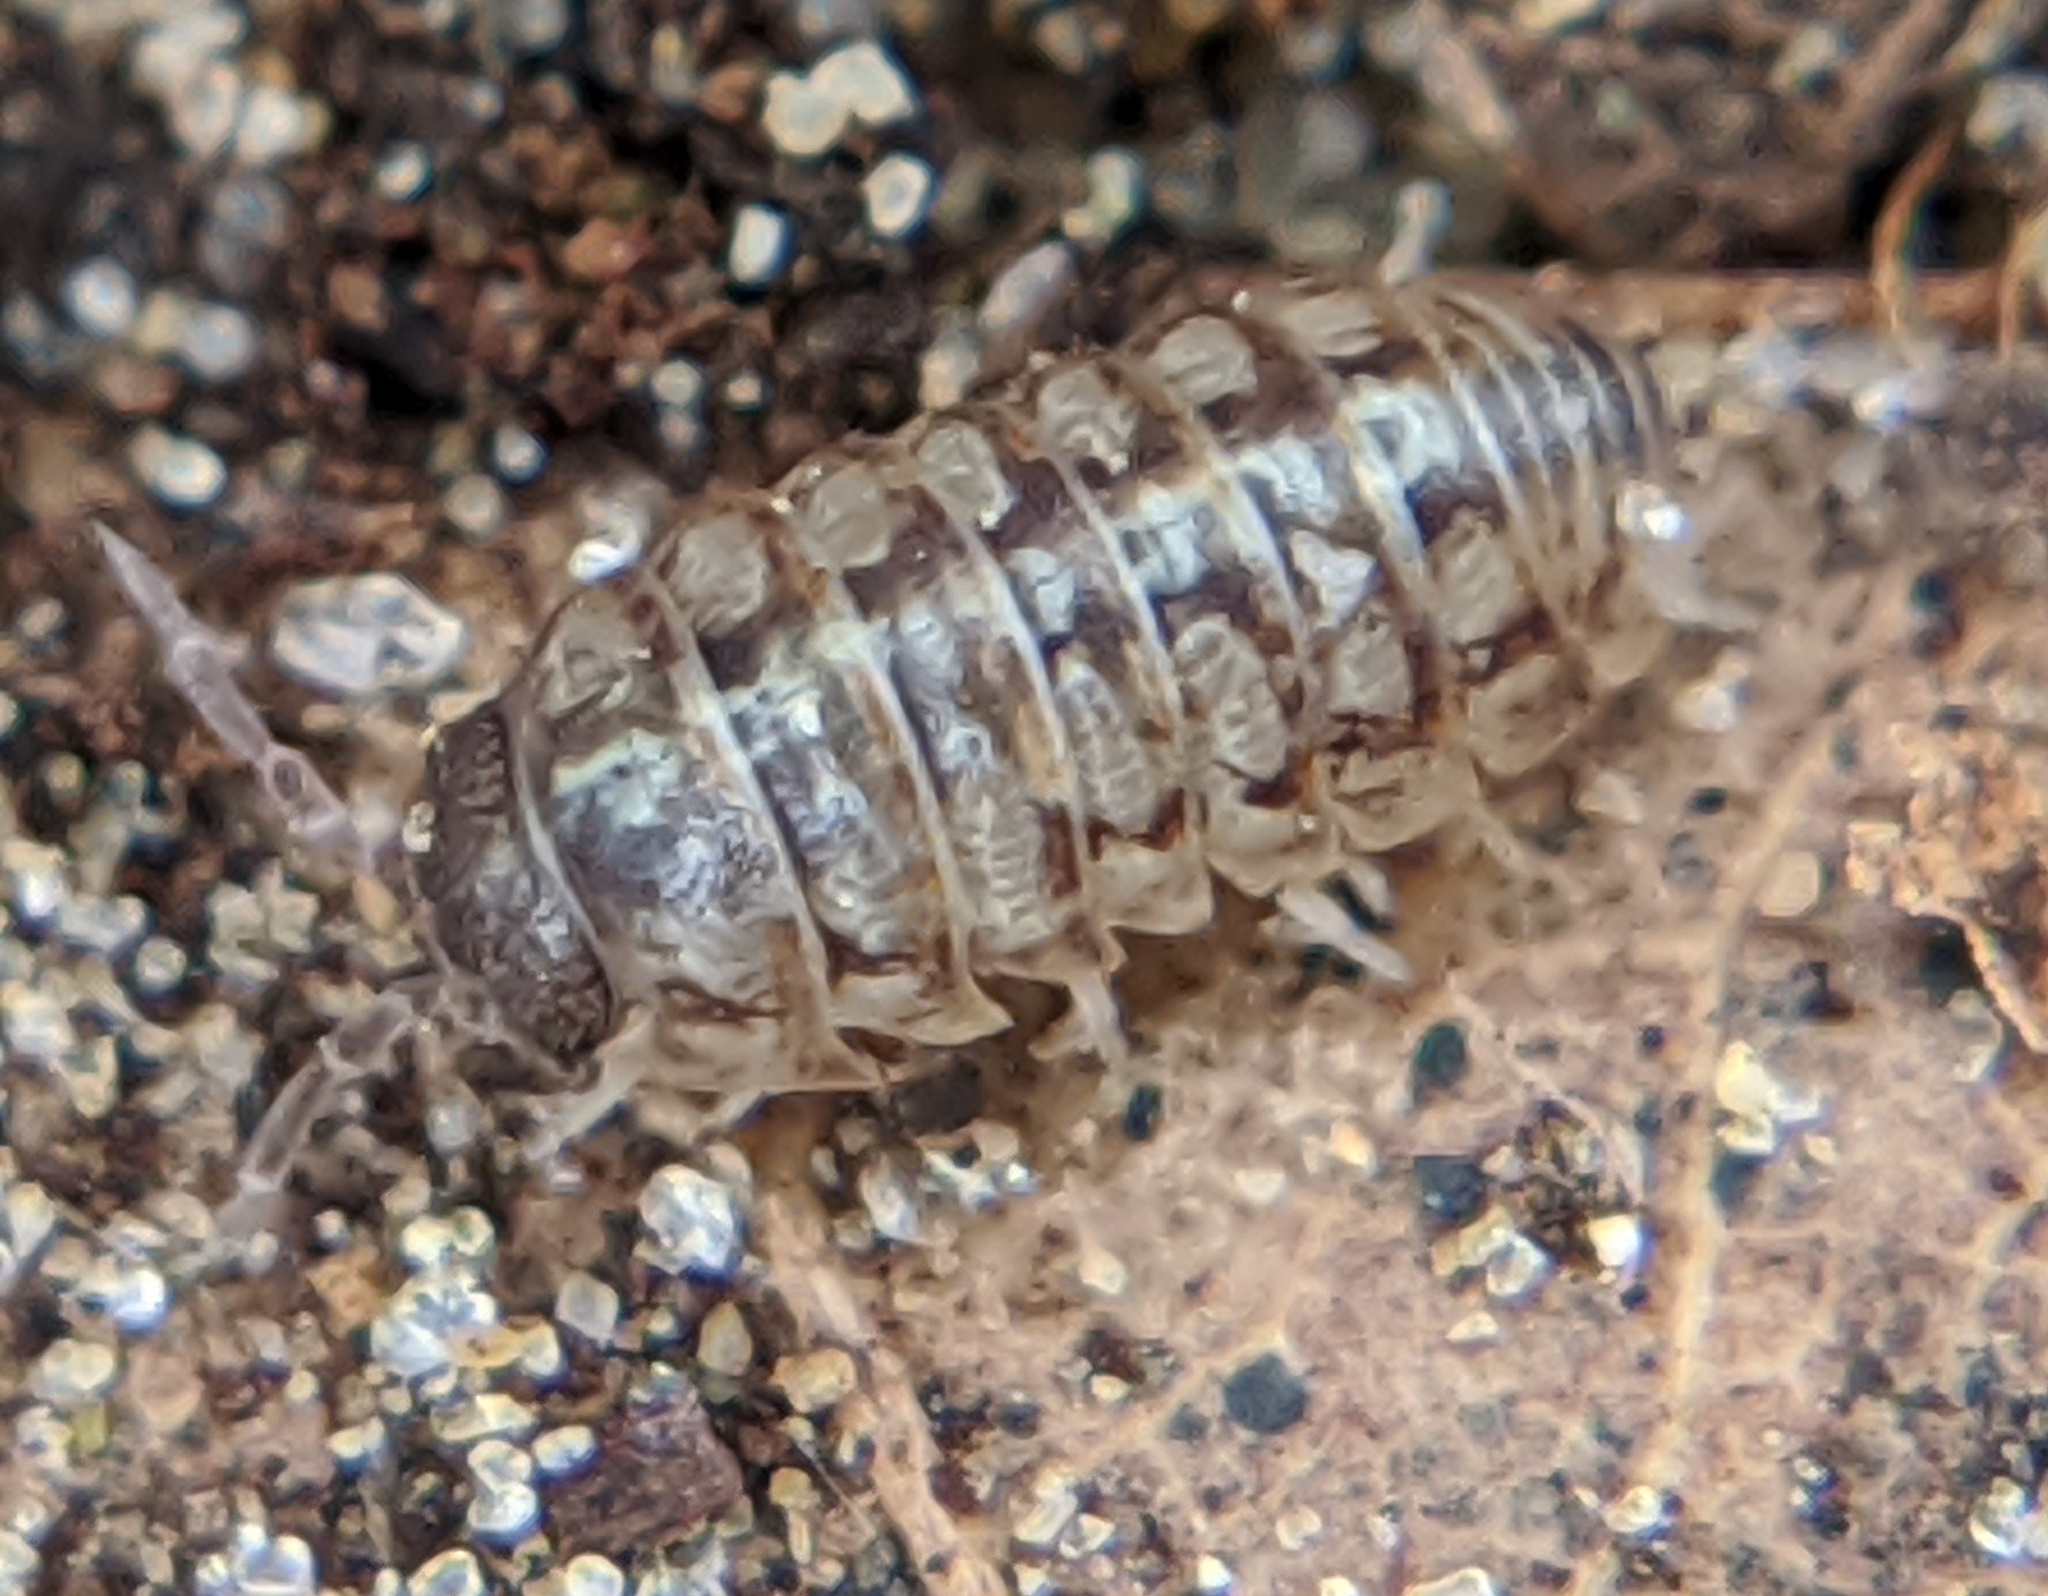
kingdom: Animalia
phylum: Arthropoda
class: Malacostraca
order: Isopoda
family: Armadillidiidae
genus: Armadillidium
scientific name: Armadillidium vulgare
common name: Common pill woodlouse
